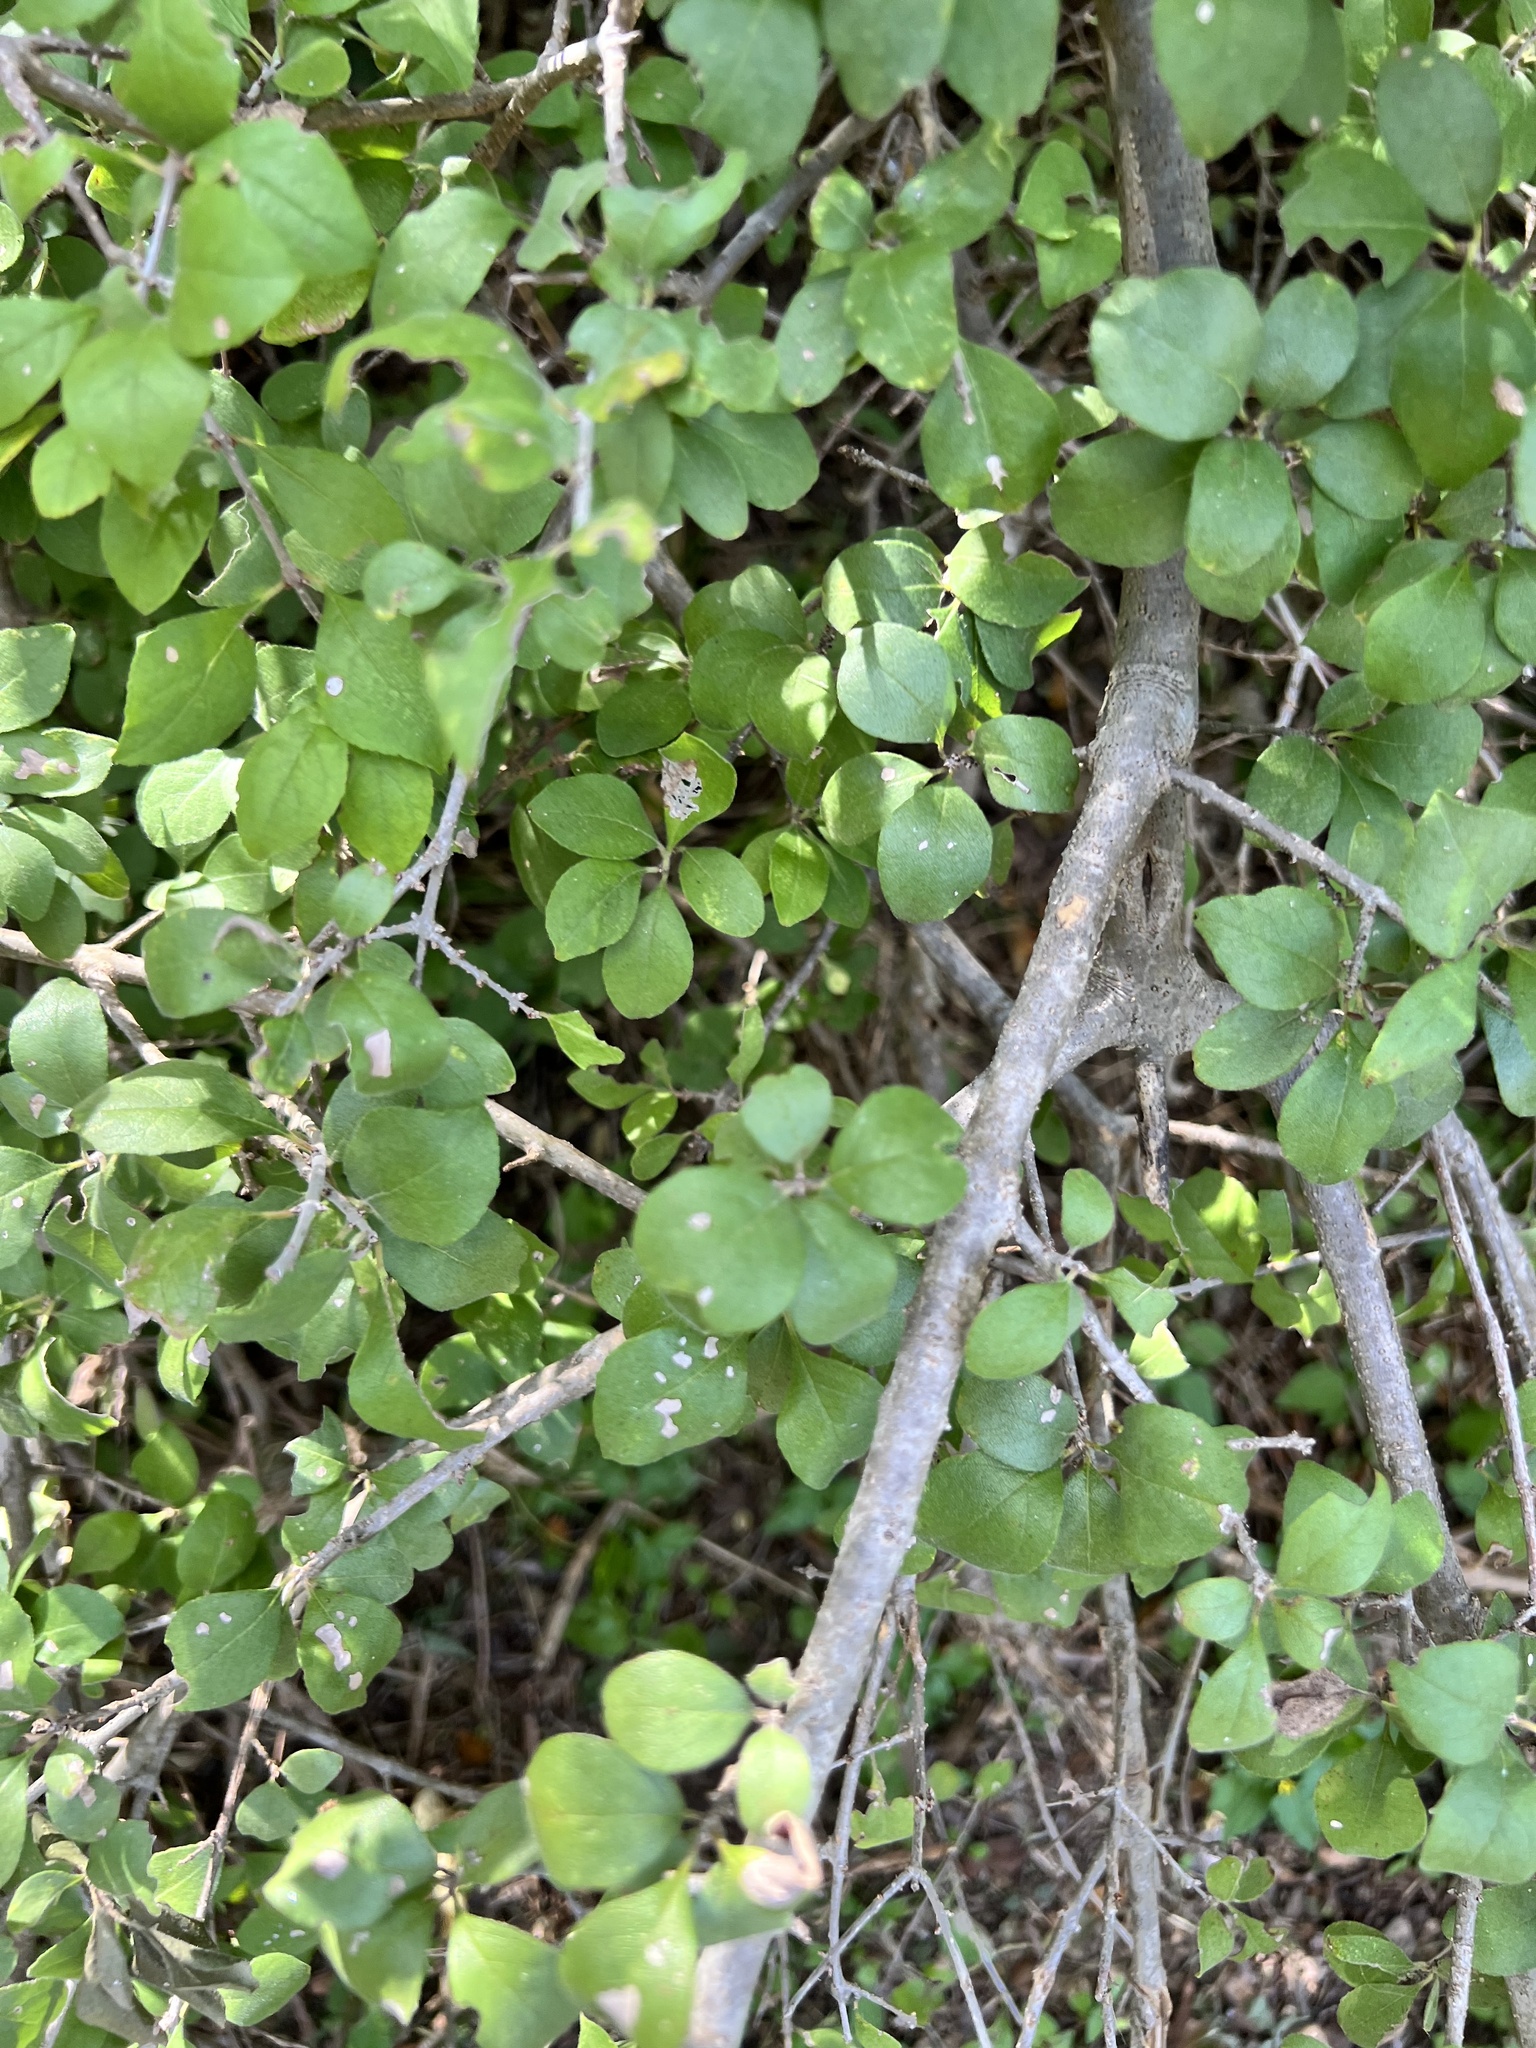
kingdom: Plantae
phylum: Tracheophyta
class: Magnoliopsida
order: Lamiales
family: Oleaceae
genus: Forestiera
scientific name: Forestiera pubescens
